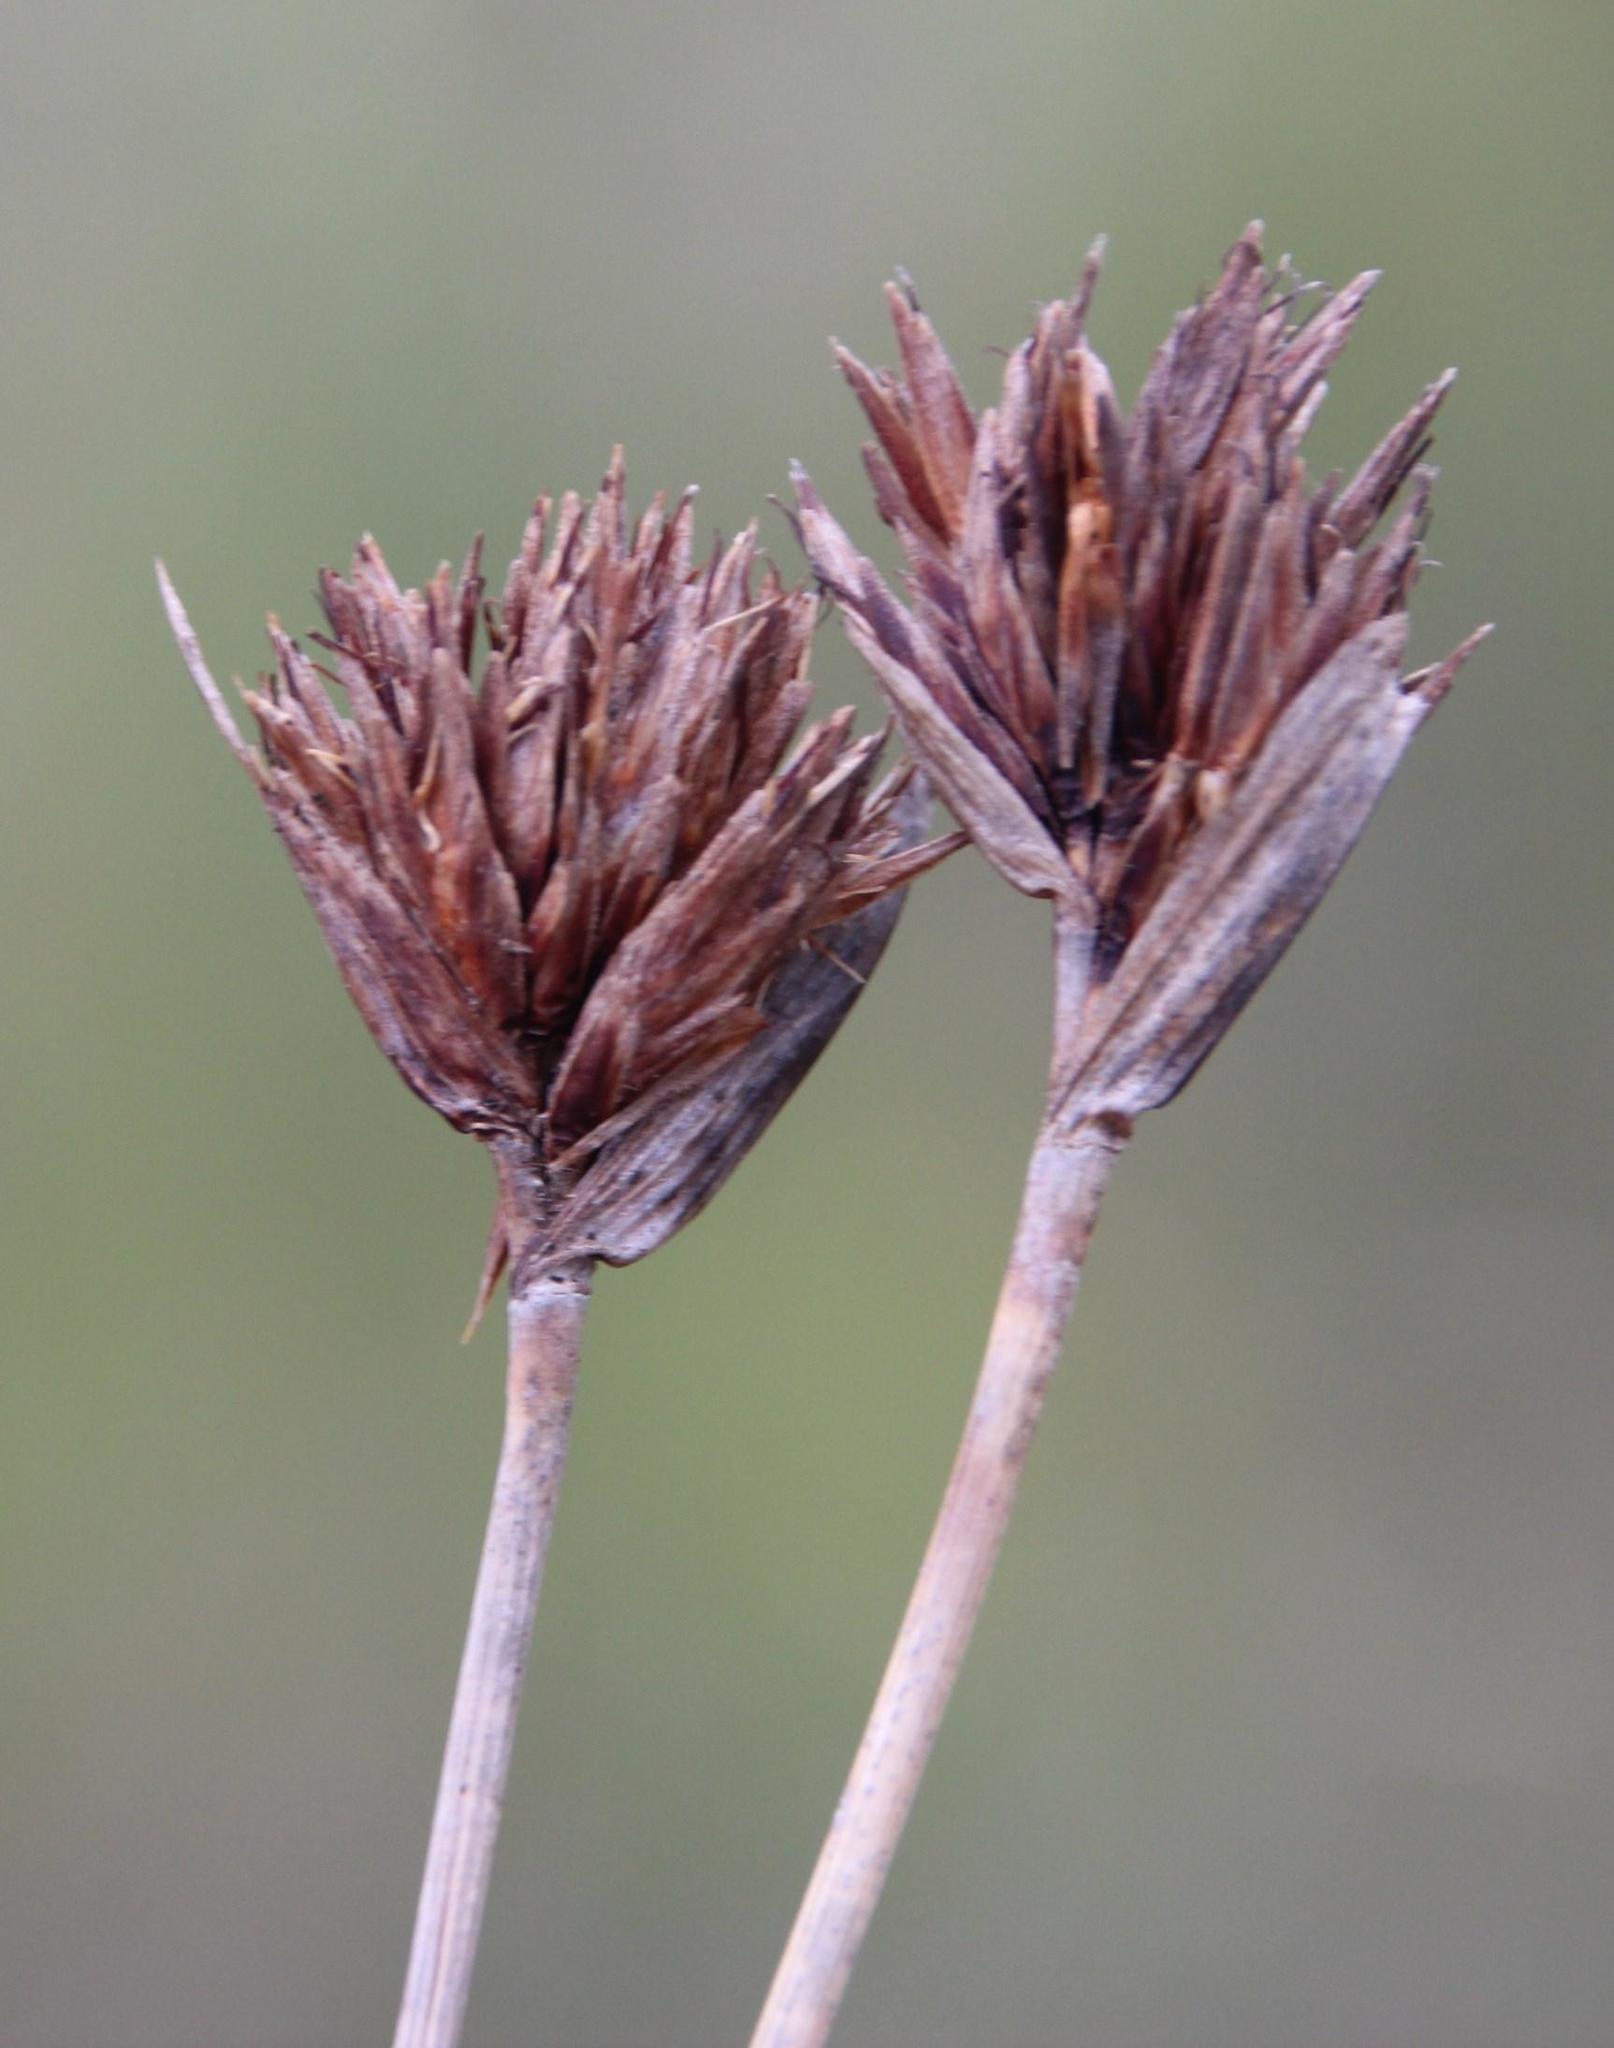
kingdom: Plantae
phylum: Tracheophyta
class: Liliopsida
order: Poales
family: Cyperaceae
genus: Schoenus
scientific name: Schoenus nigricans
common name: Black bog-rush
